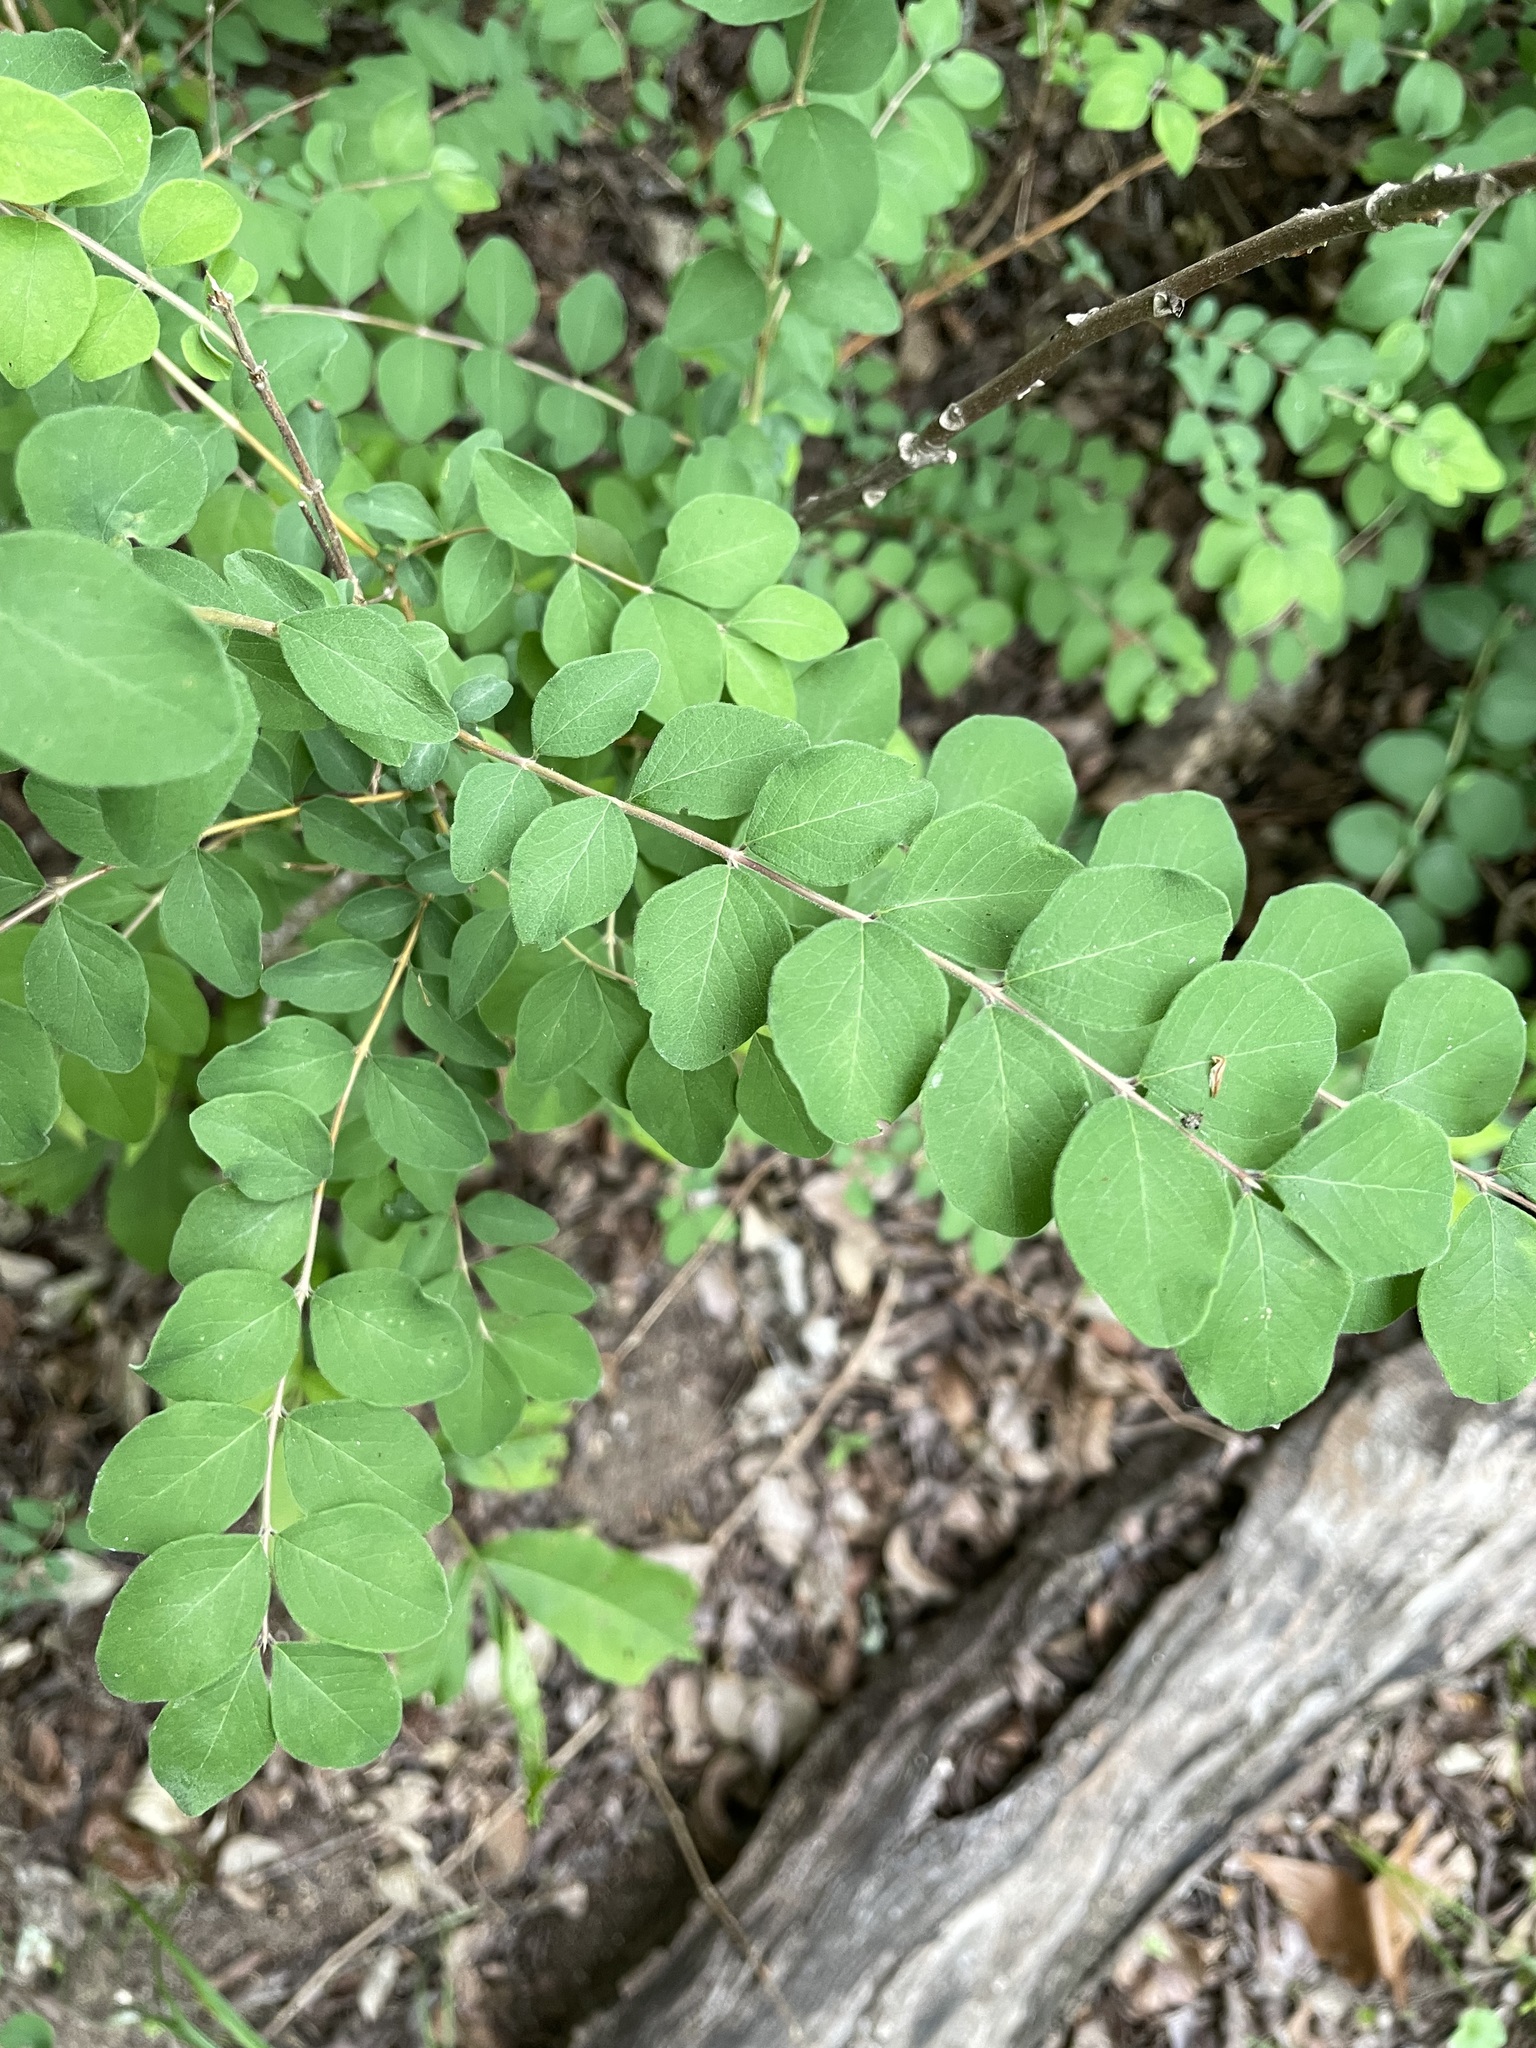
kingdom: Plantae
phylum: Tracheophyta
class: Magnoliopsida
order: Dipsacales
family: Caprifoliaceae
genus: Symphoricarpos
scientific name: Symphoricarpos orbiculatus
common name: Coralberry
